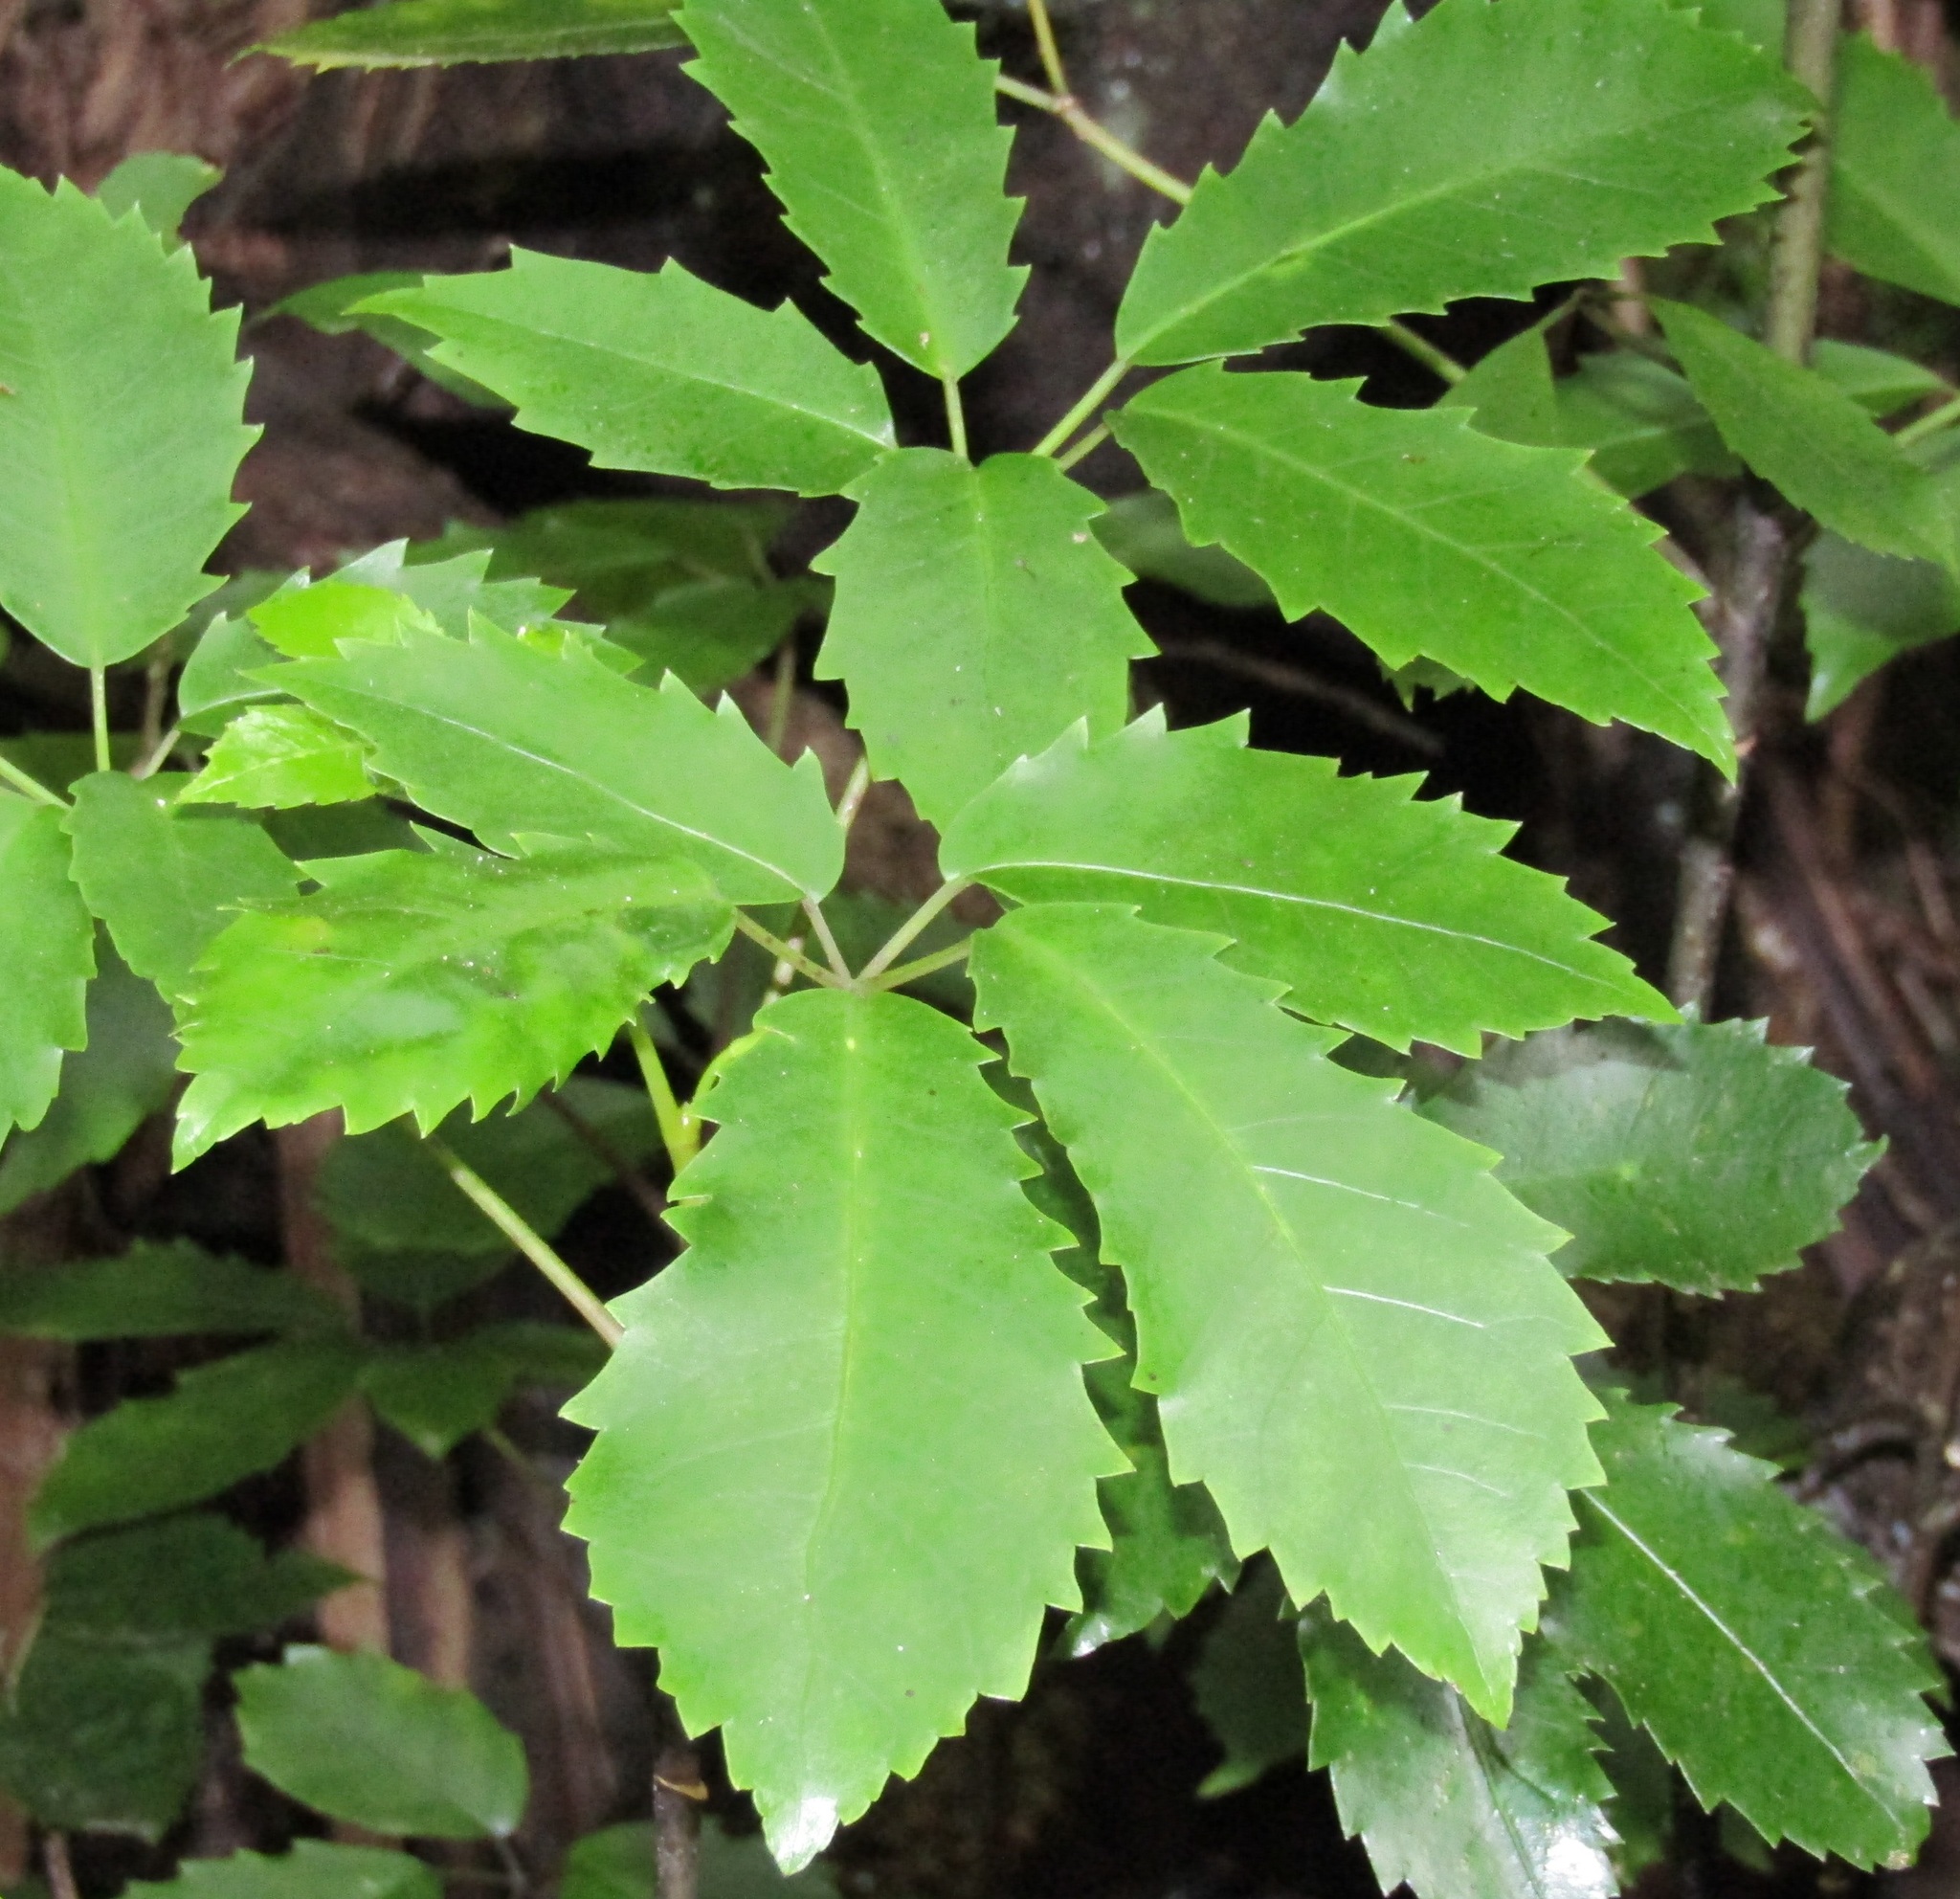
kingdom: Plantae
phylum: Tracheophyta
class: Magnoliopsida
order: Apiales
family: Araliaceae
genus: Neopanax
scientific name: Neopanax arboreus
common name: Five-fingers
